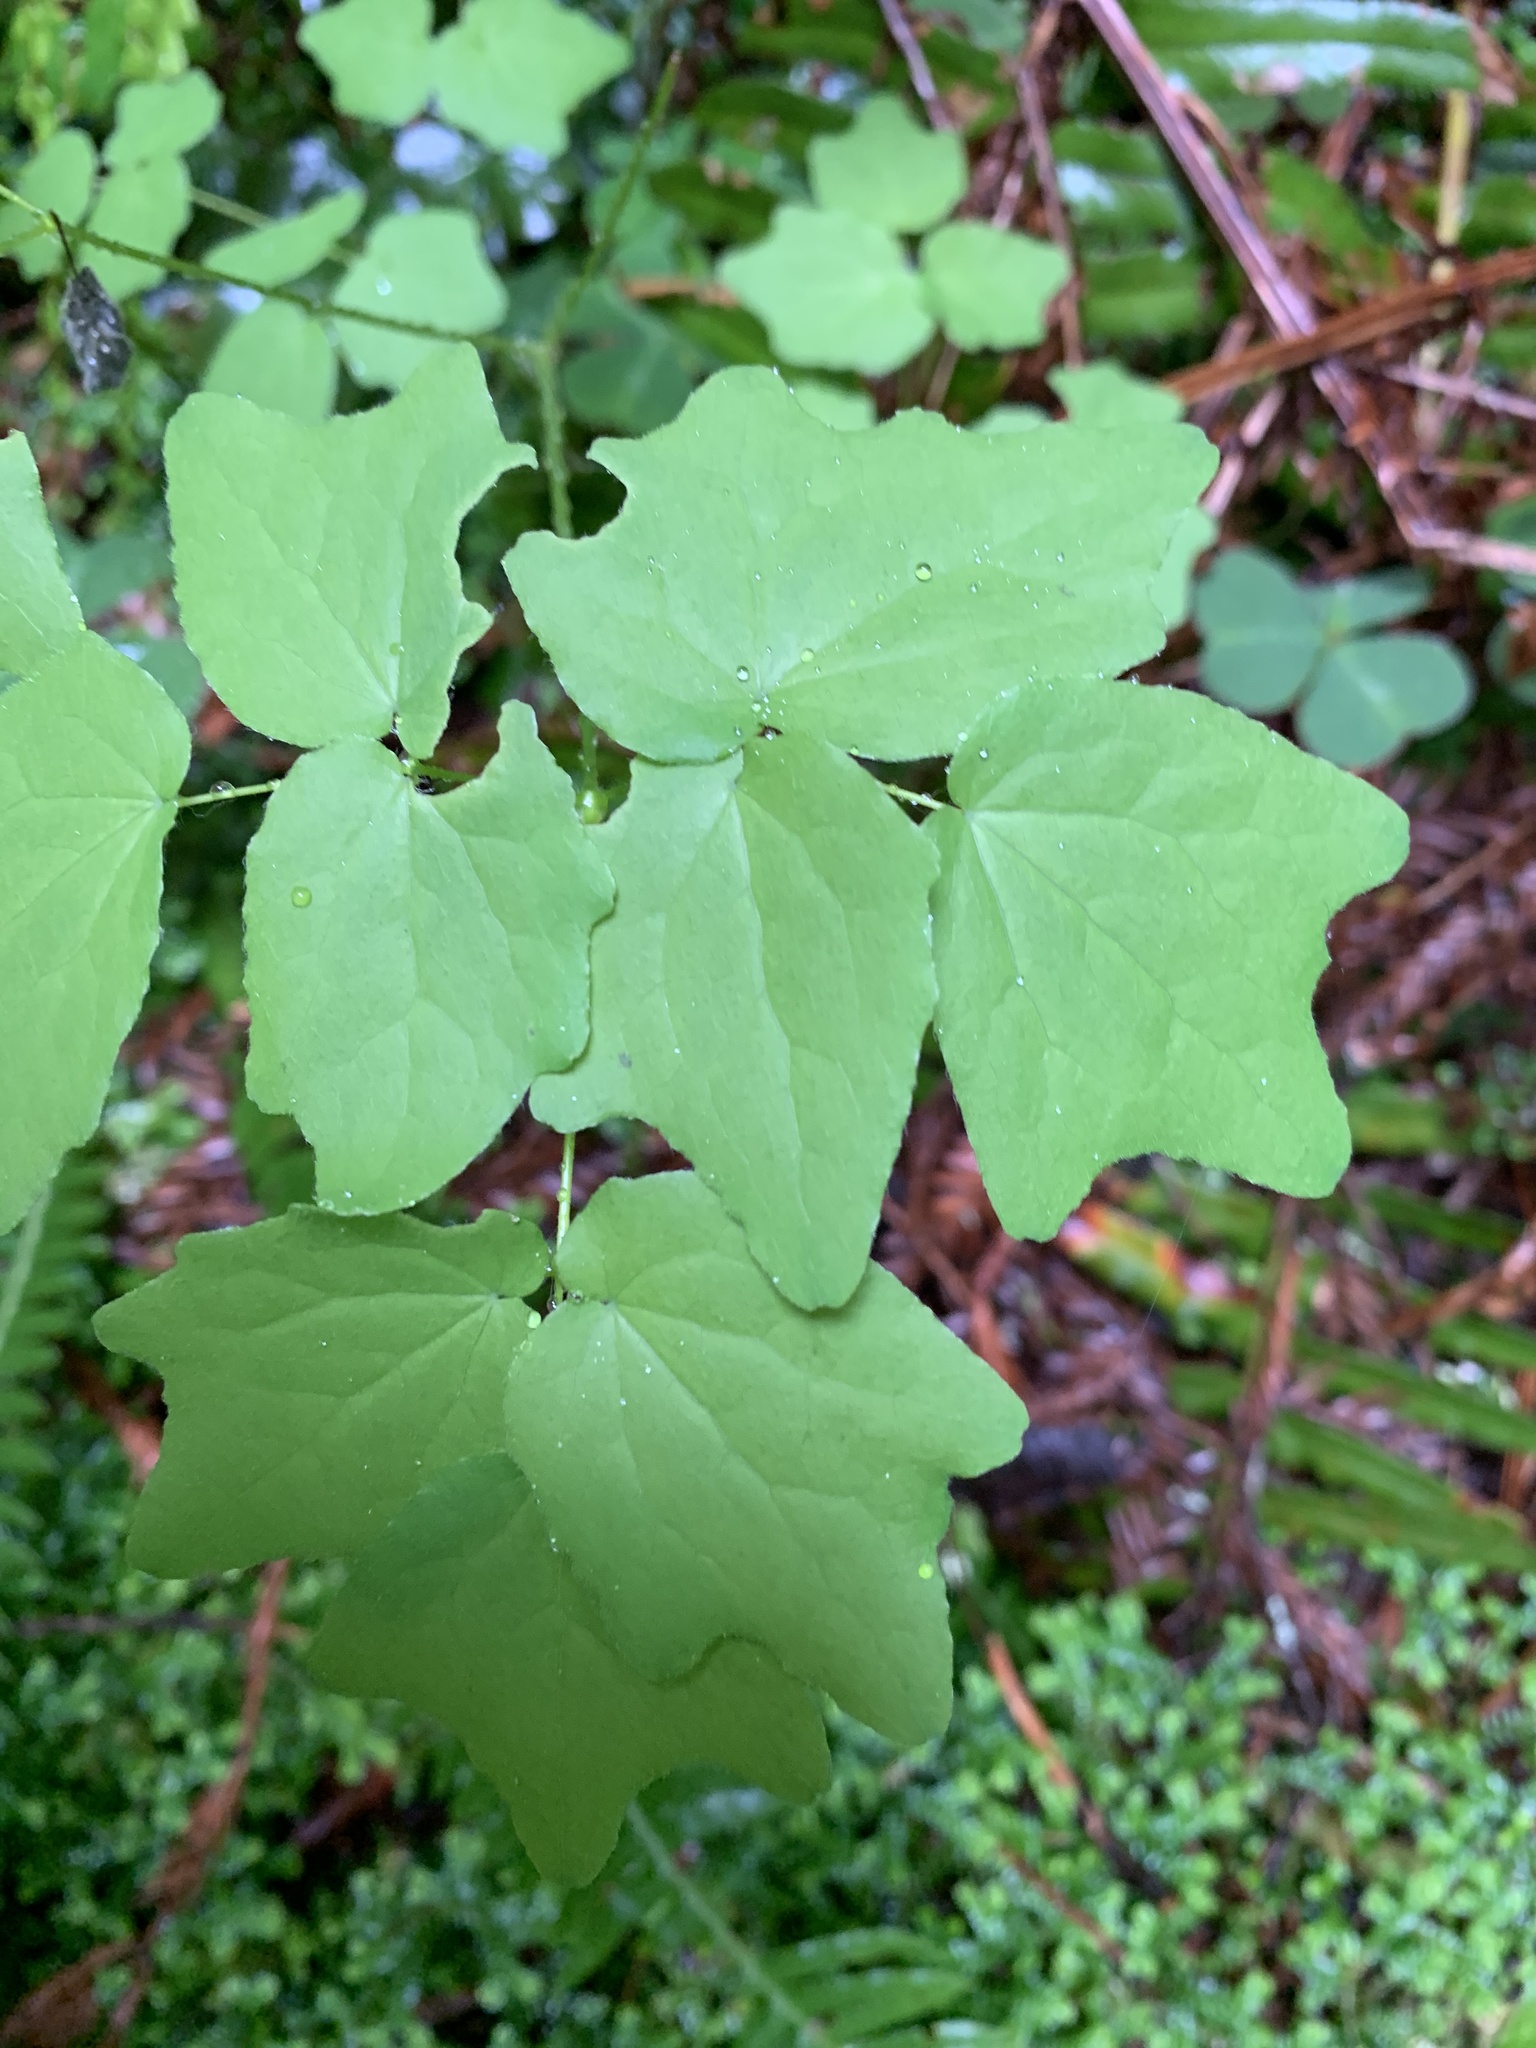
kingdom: Plantae
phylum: Tracheophyta
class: Magnoliopsida
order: Ranunculales
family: Berberidaceae
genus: Vancouveria
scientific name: Vancouveria hexandra
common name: Northern inside-out-flower
